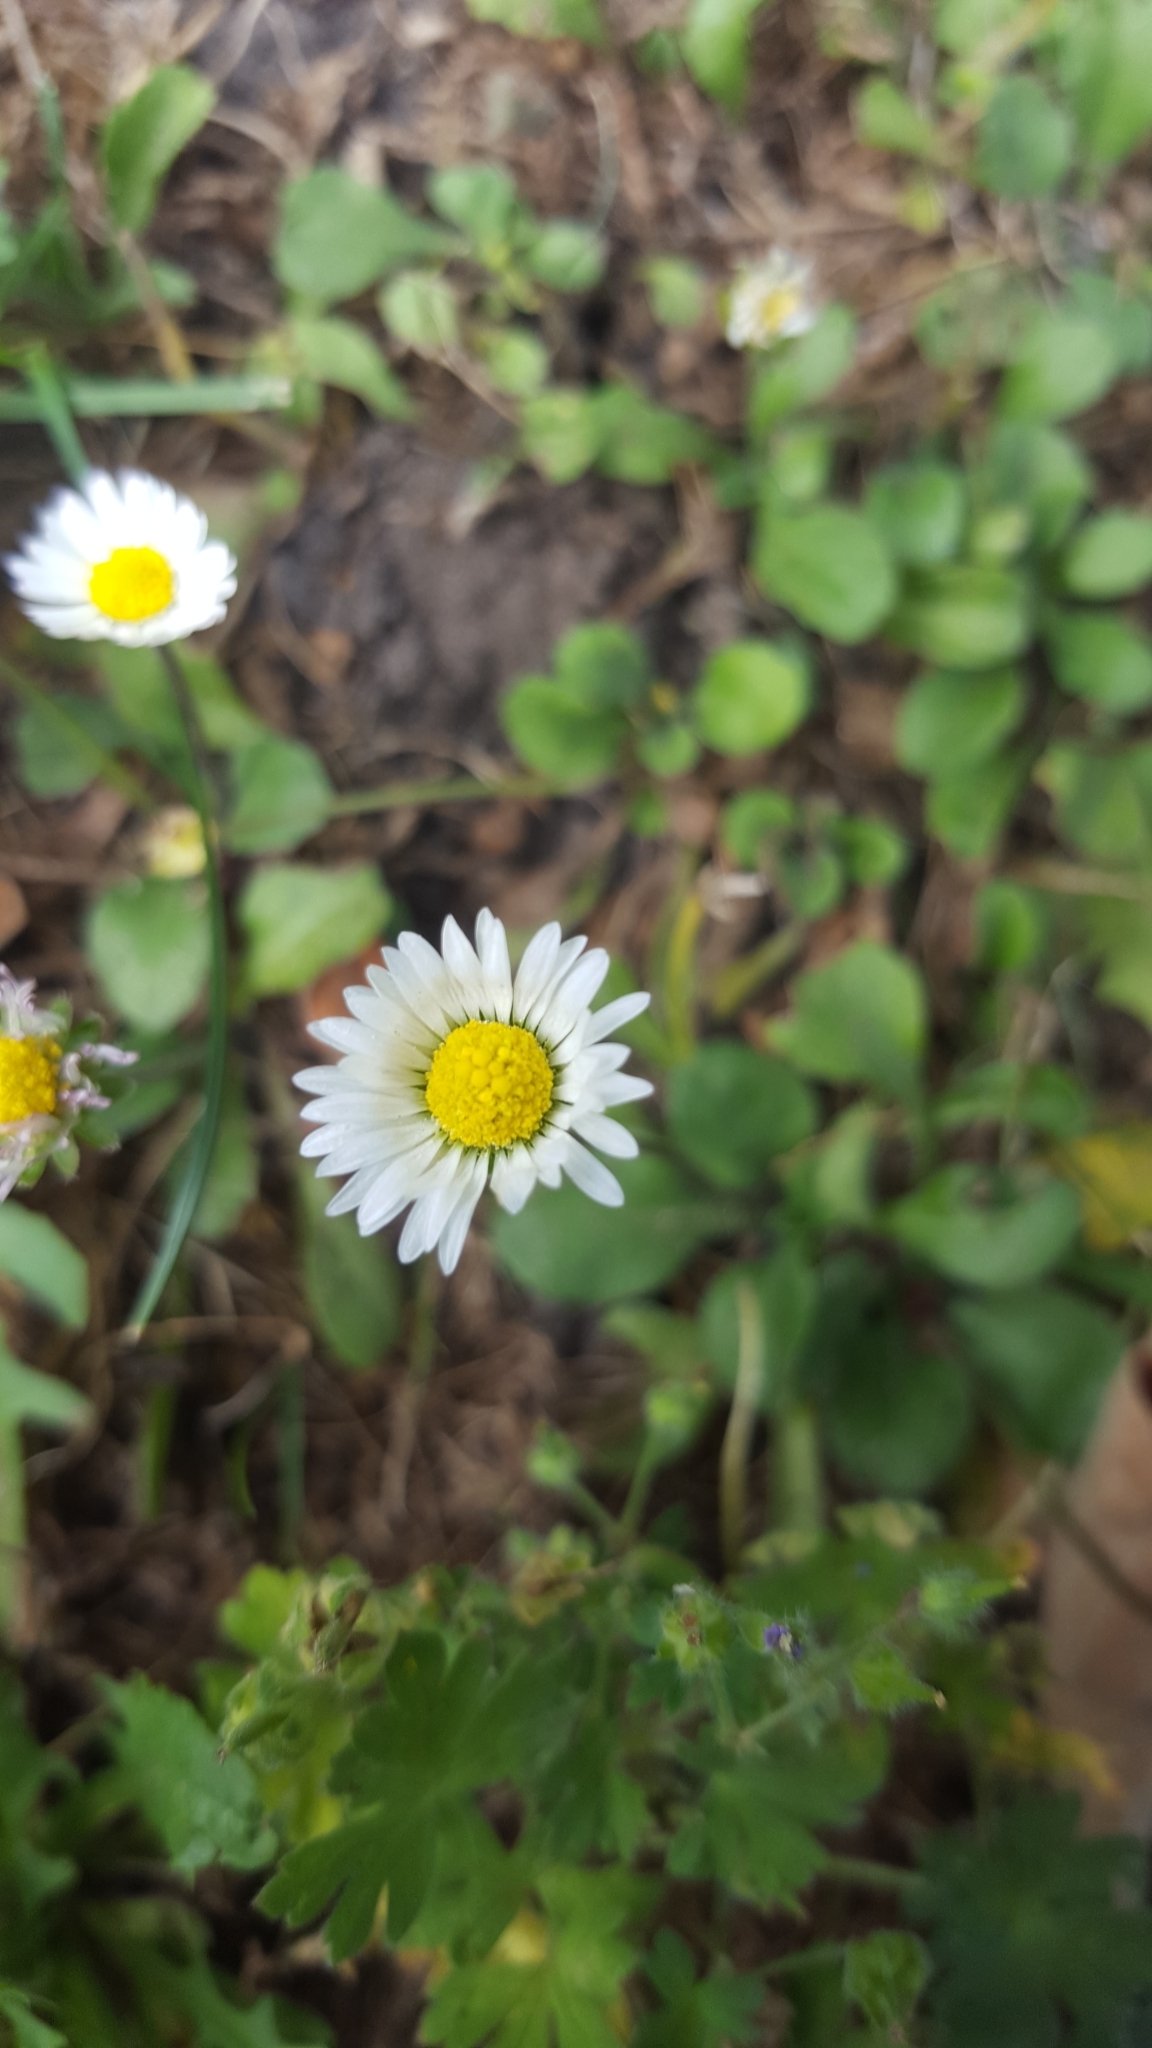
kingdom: Plantae
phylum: Tracheophyta
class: Magnoliopsida
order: Asterales
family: Asteraceae
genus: Bellis
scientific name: Bellis perennis
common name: Lawndaisy
